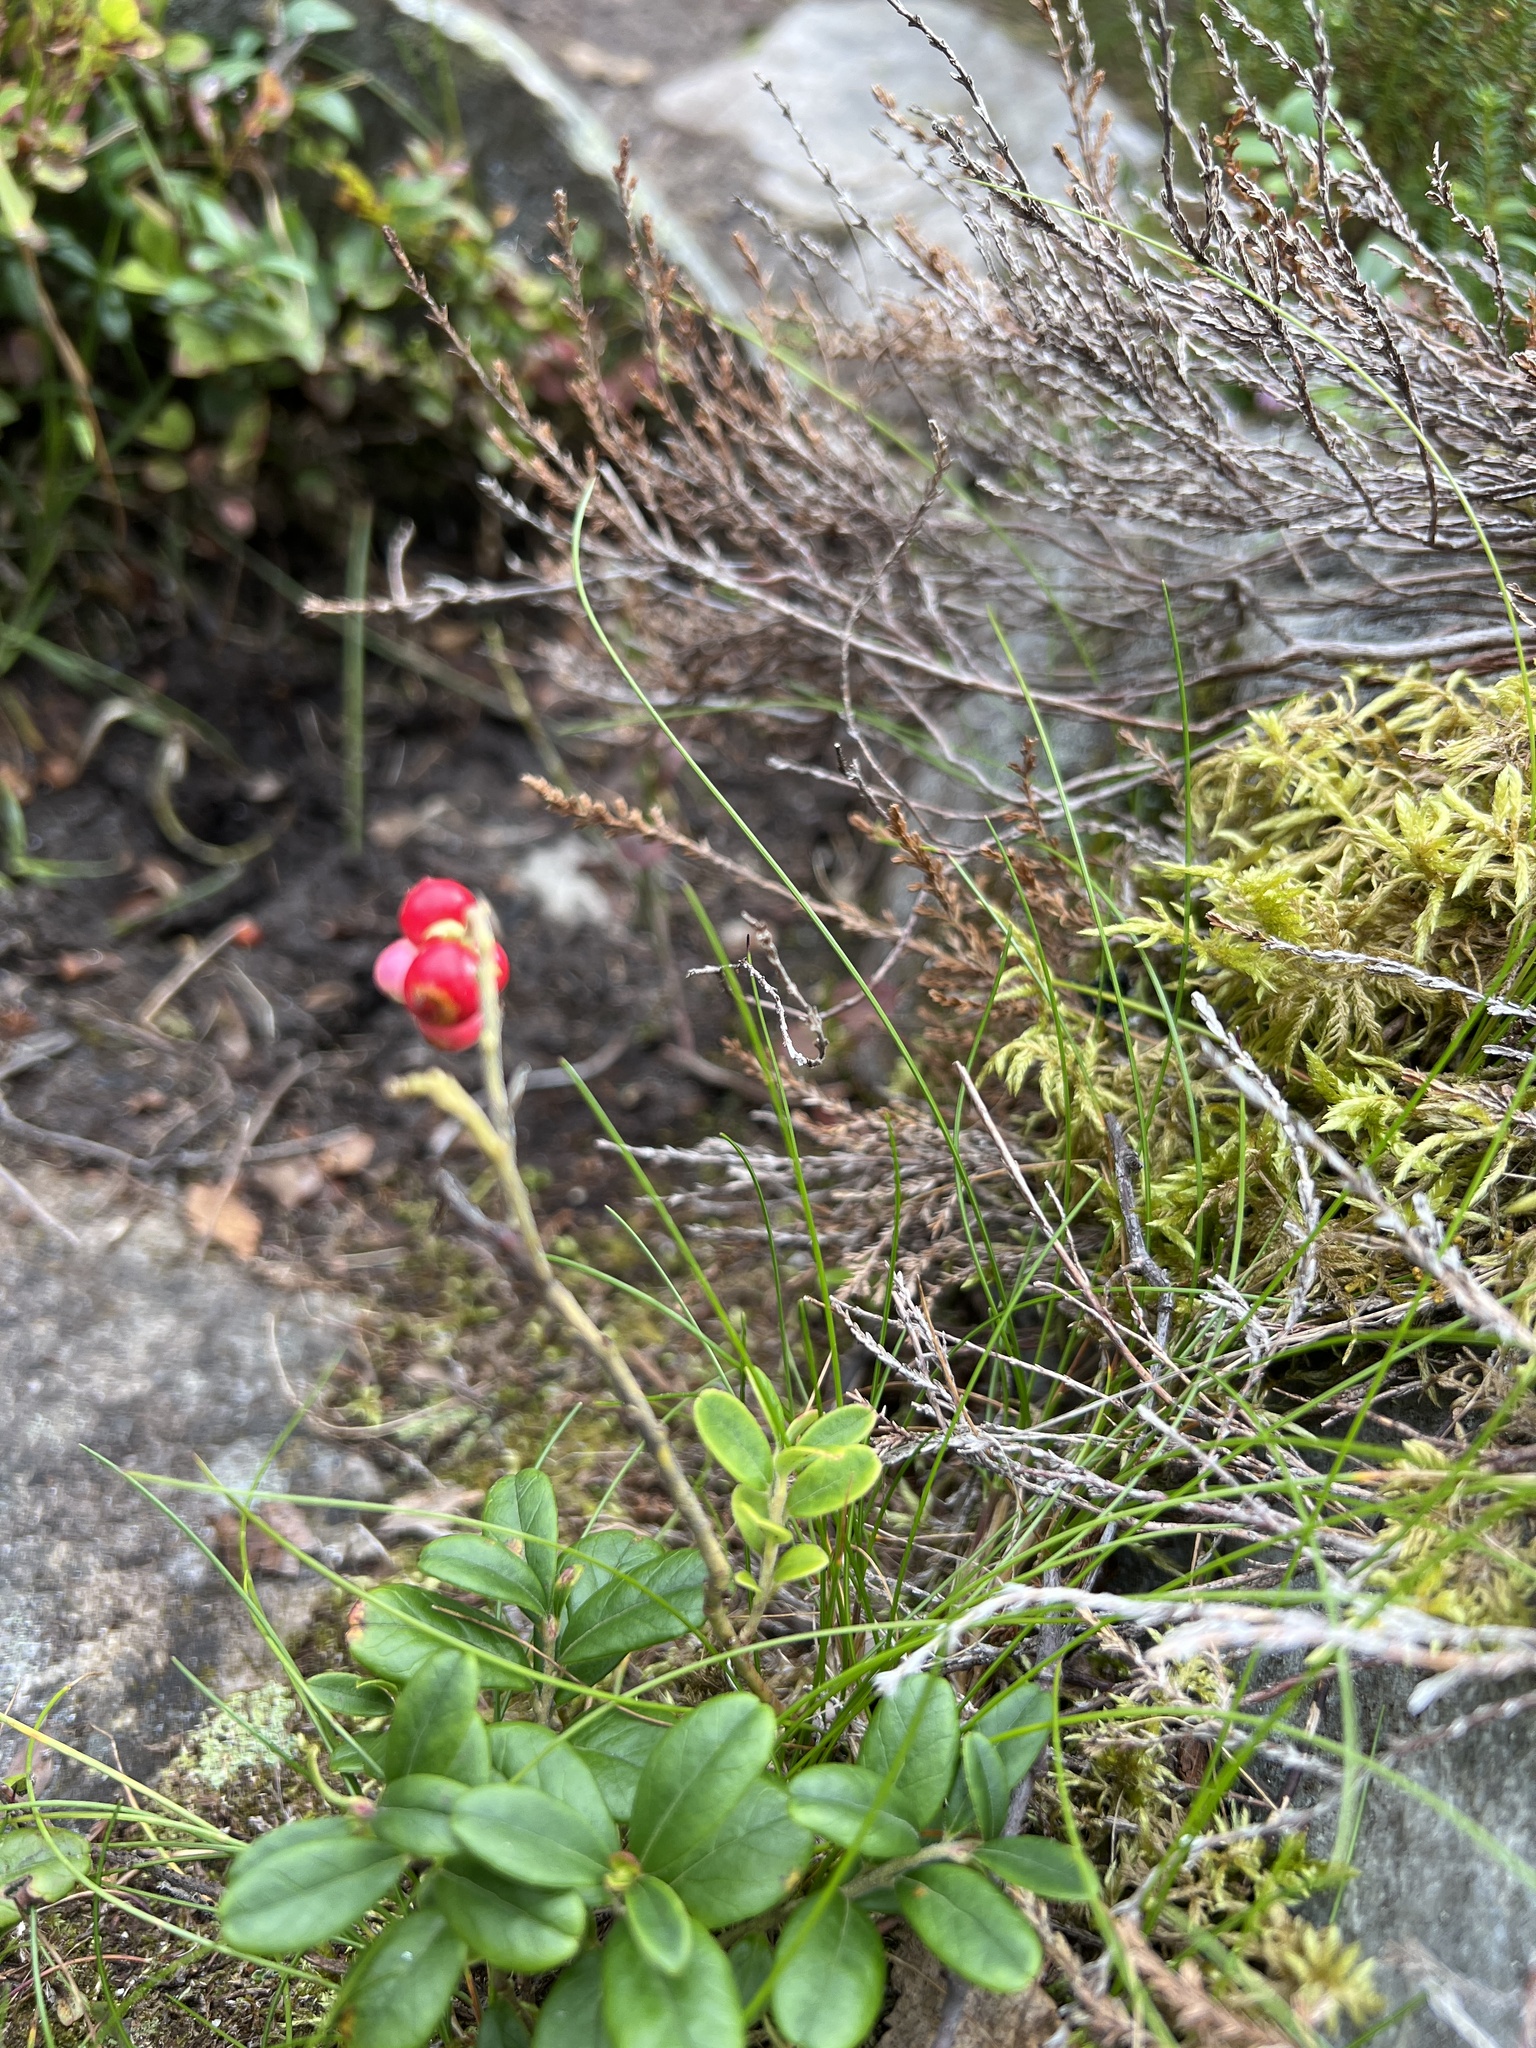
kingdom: Plantae
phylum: Tracheophyta
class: Magnoliopsida
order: Ericales
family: Ericaceae
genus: Vaccinium
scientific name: Vaccinium vitis-idaea
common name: Cowberry
